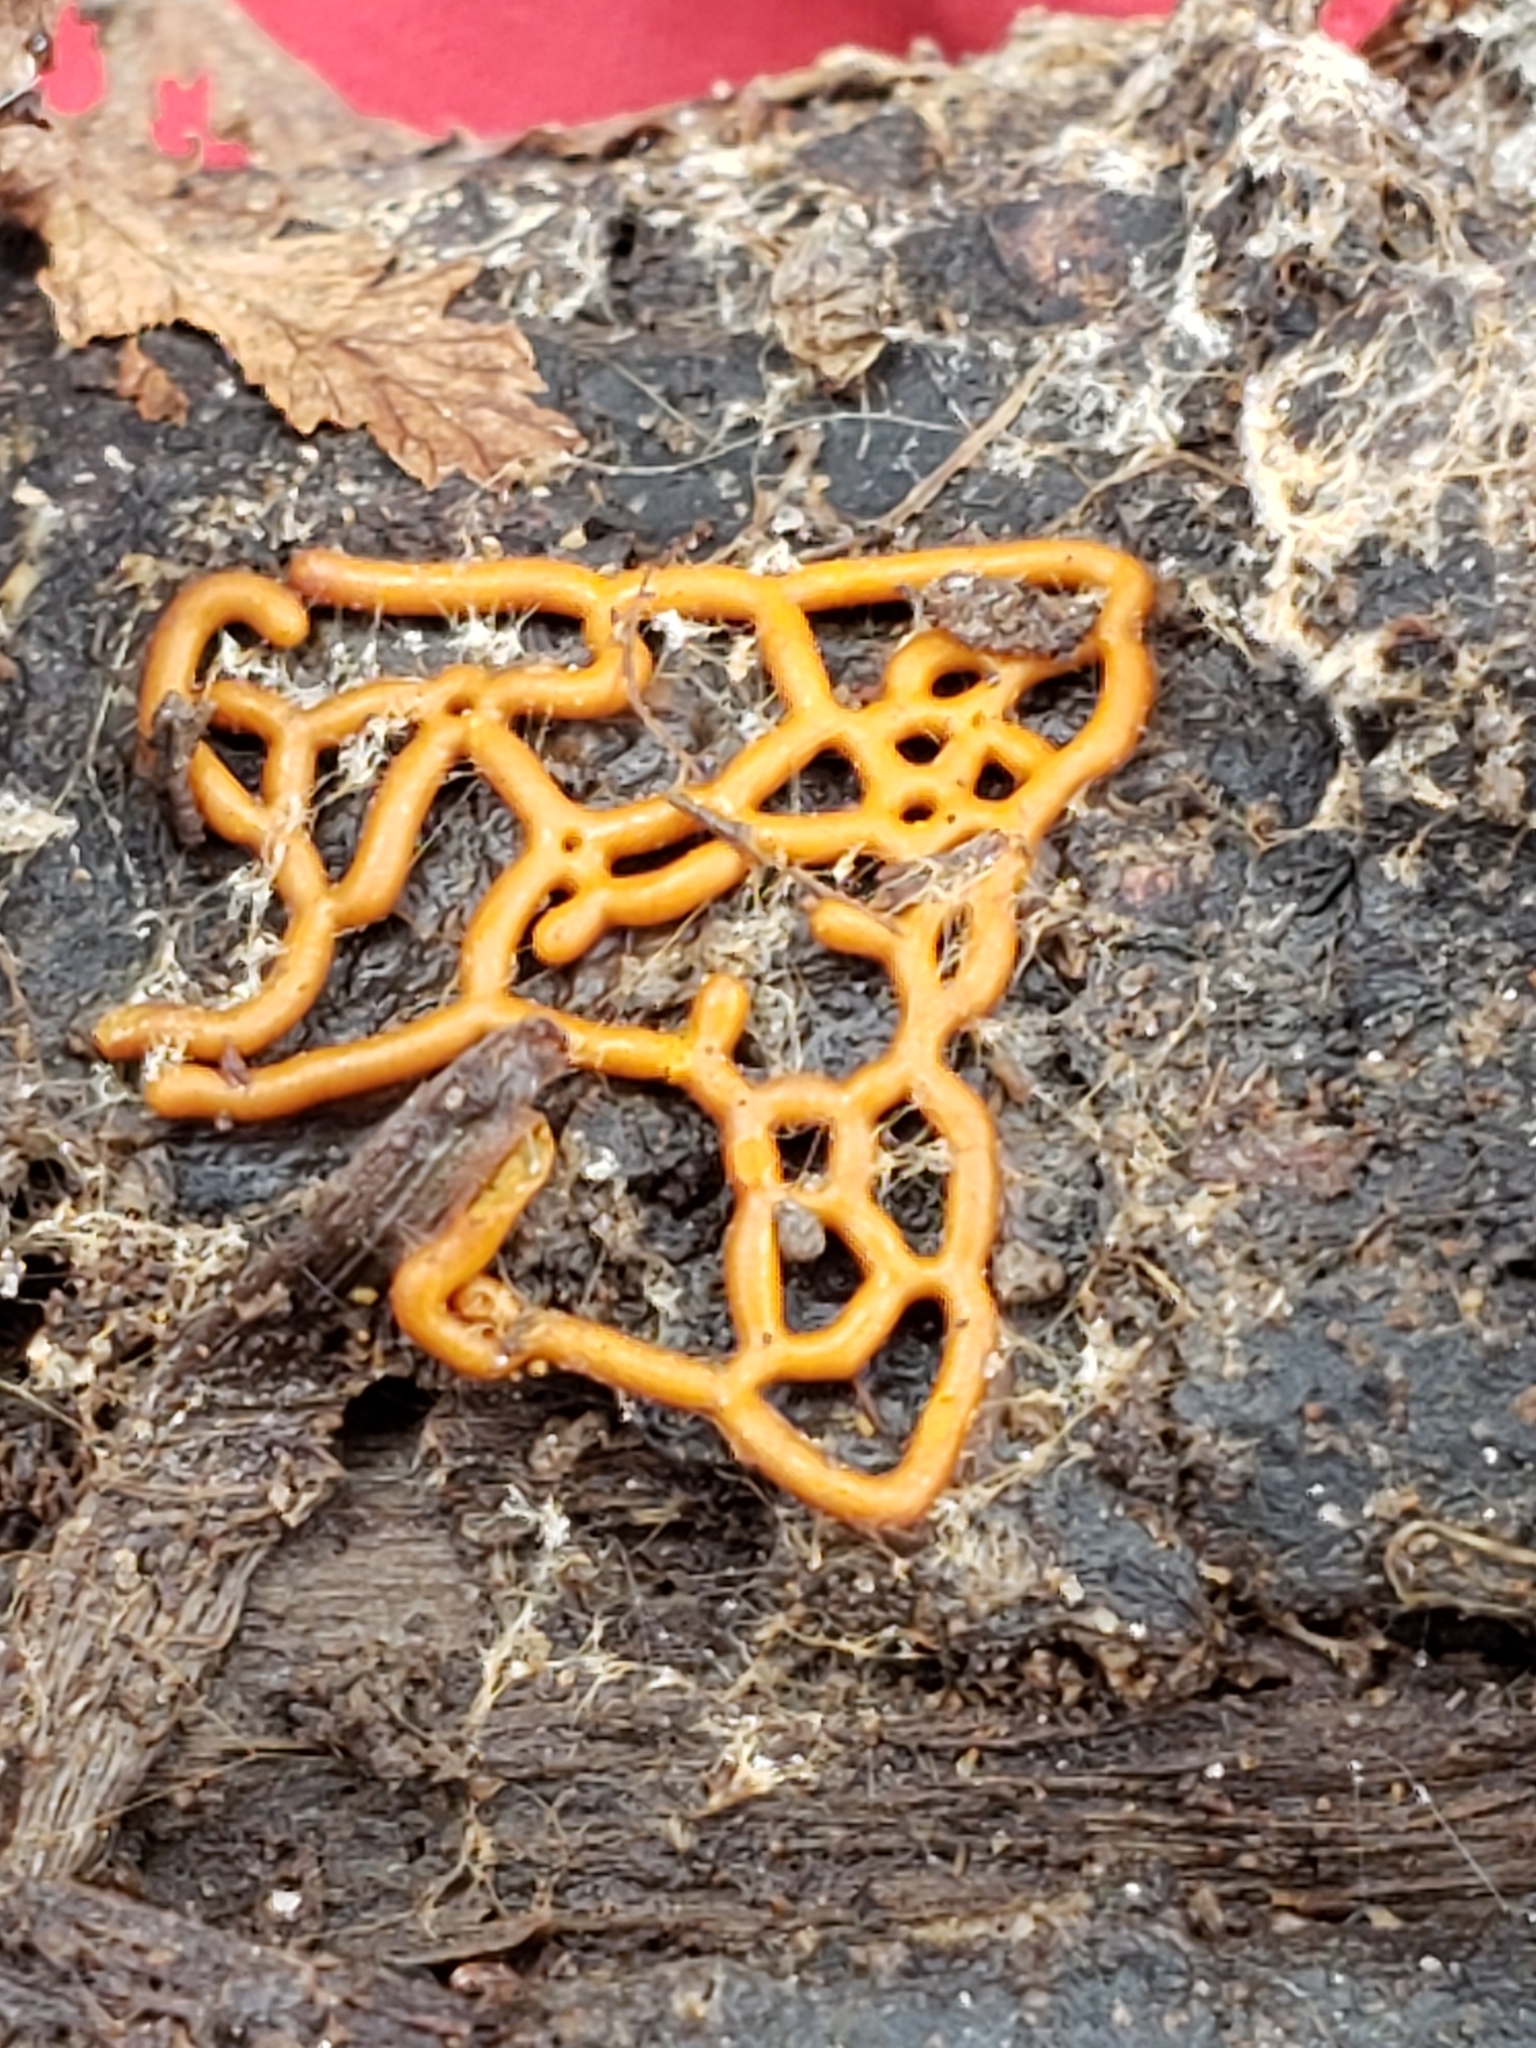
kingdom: Protozoa
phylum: Mycetozoa
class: Myxomycetes
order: Trichiales
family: Arcyriaceae
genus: Hemitrichia
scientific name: Hemitrichia serpula
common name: Pretzel slime mold
